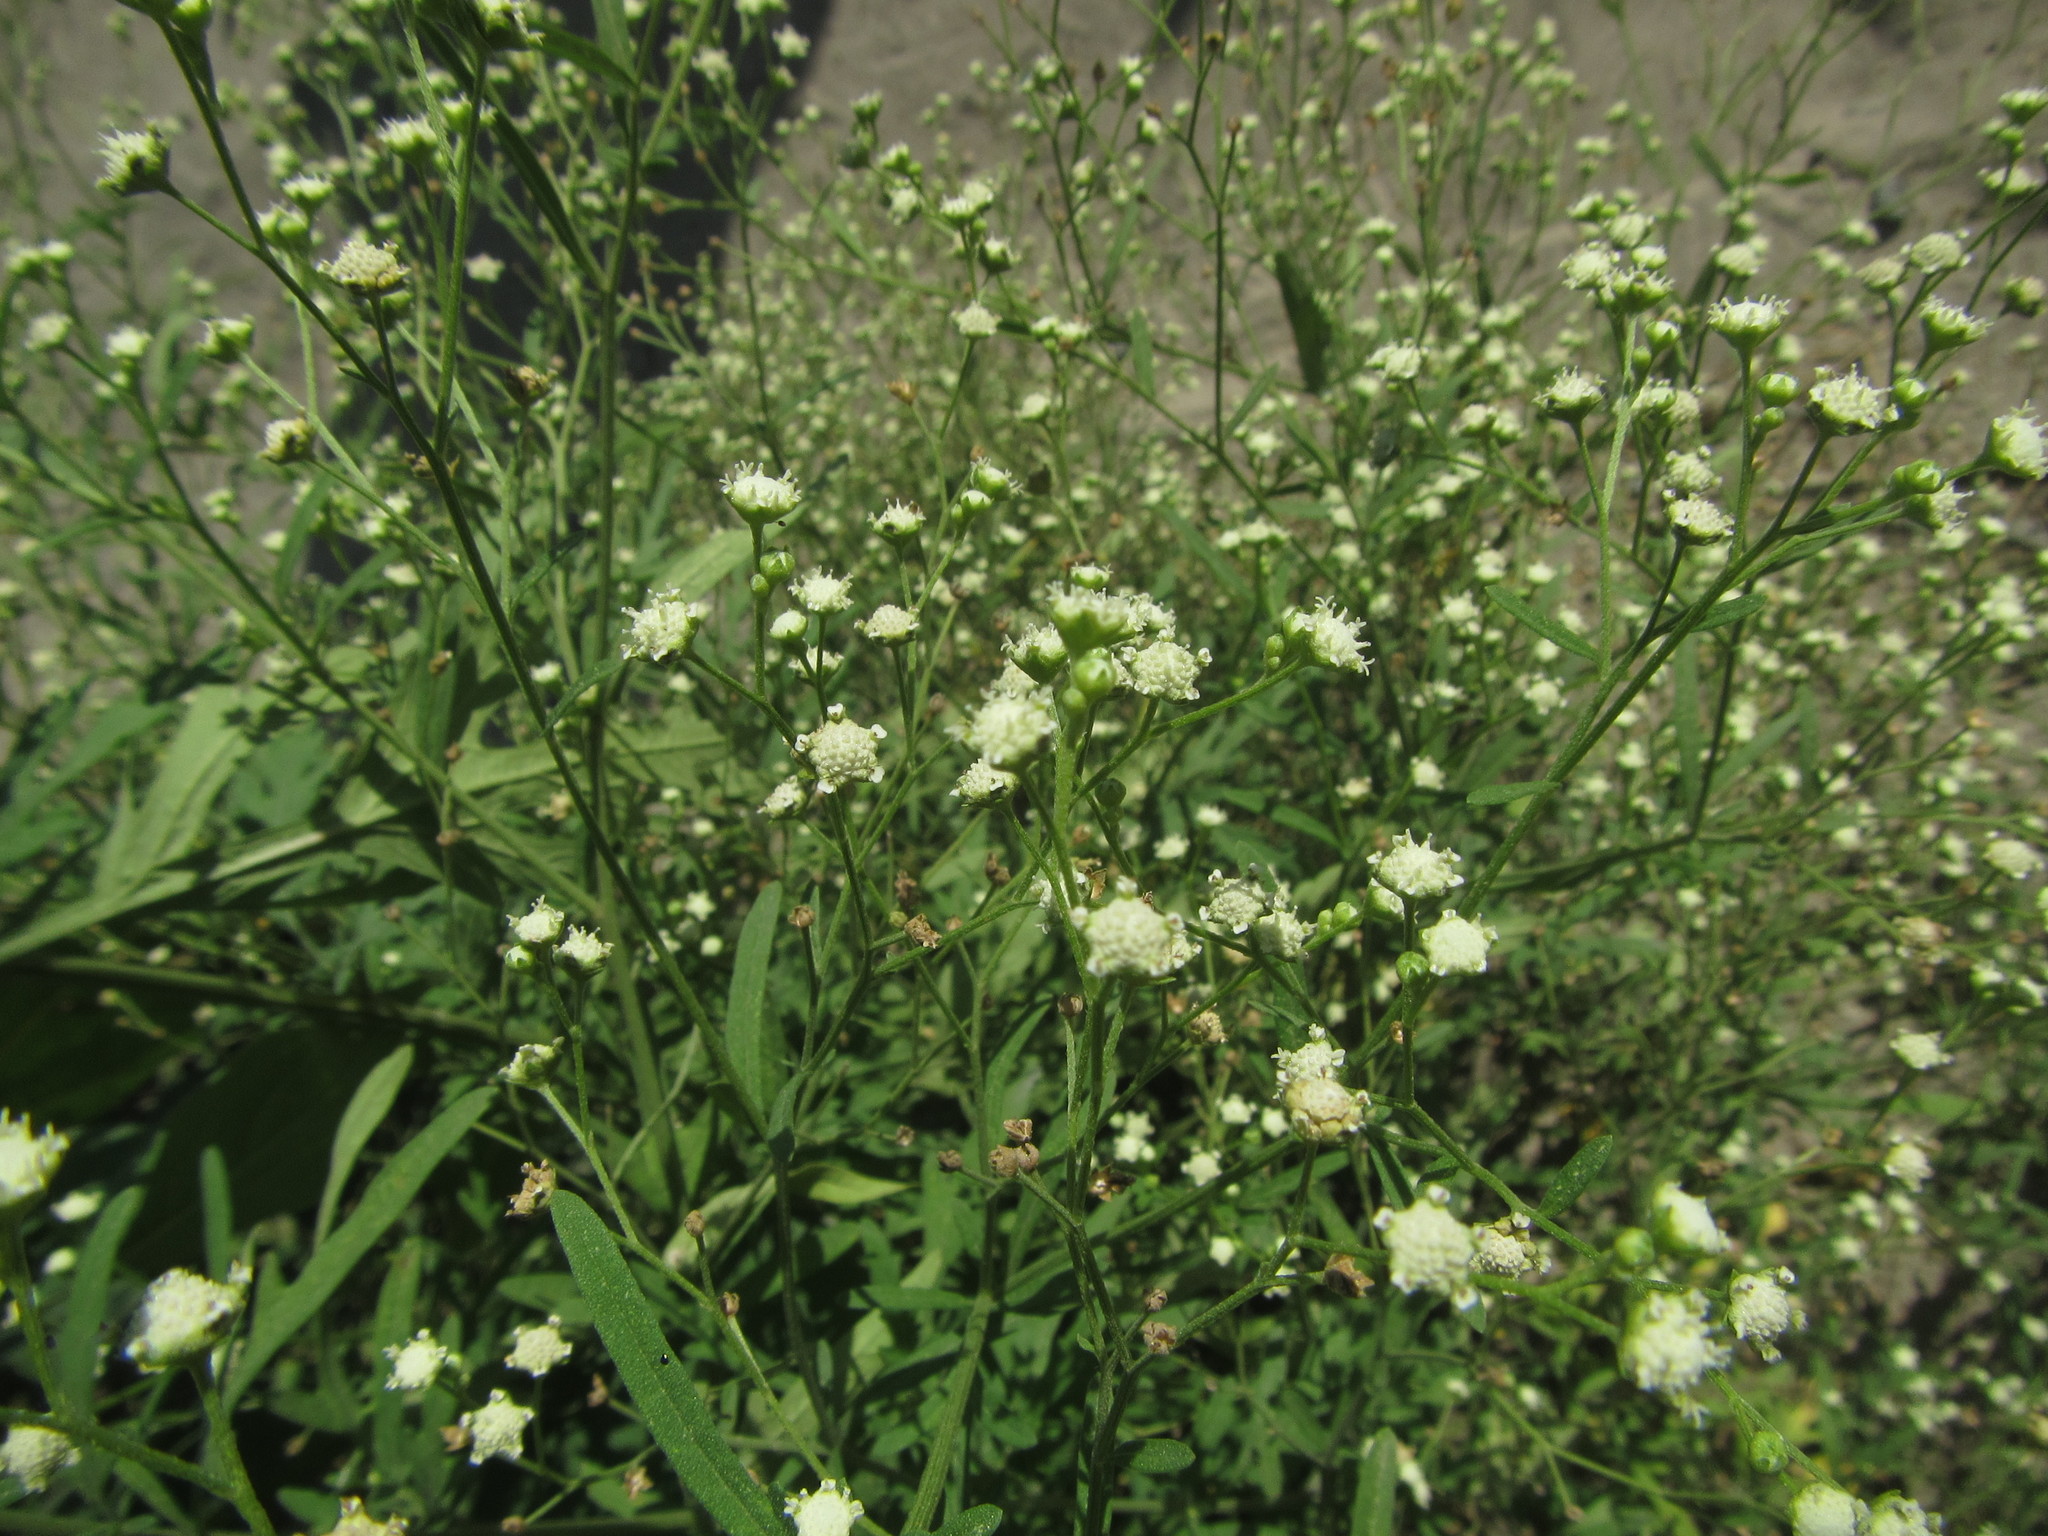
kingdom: Plantae
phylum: Tracheophyta
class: Magnoliopsida
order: Asterales
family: Asteraceae
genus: Parthenium
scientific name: Parthenium hysterophorus
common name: Santa maria feverfew
